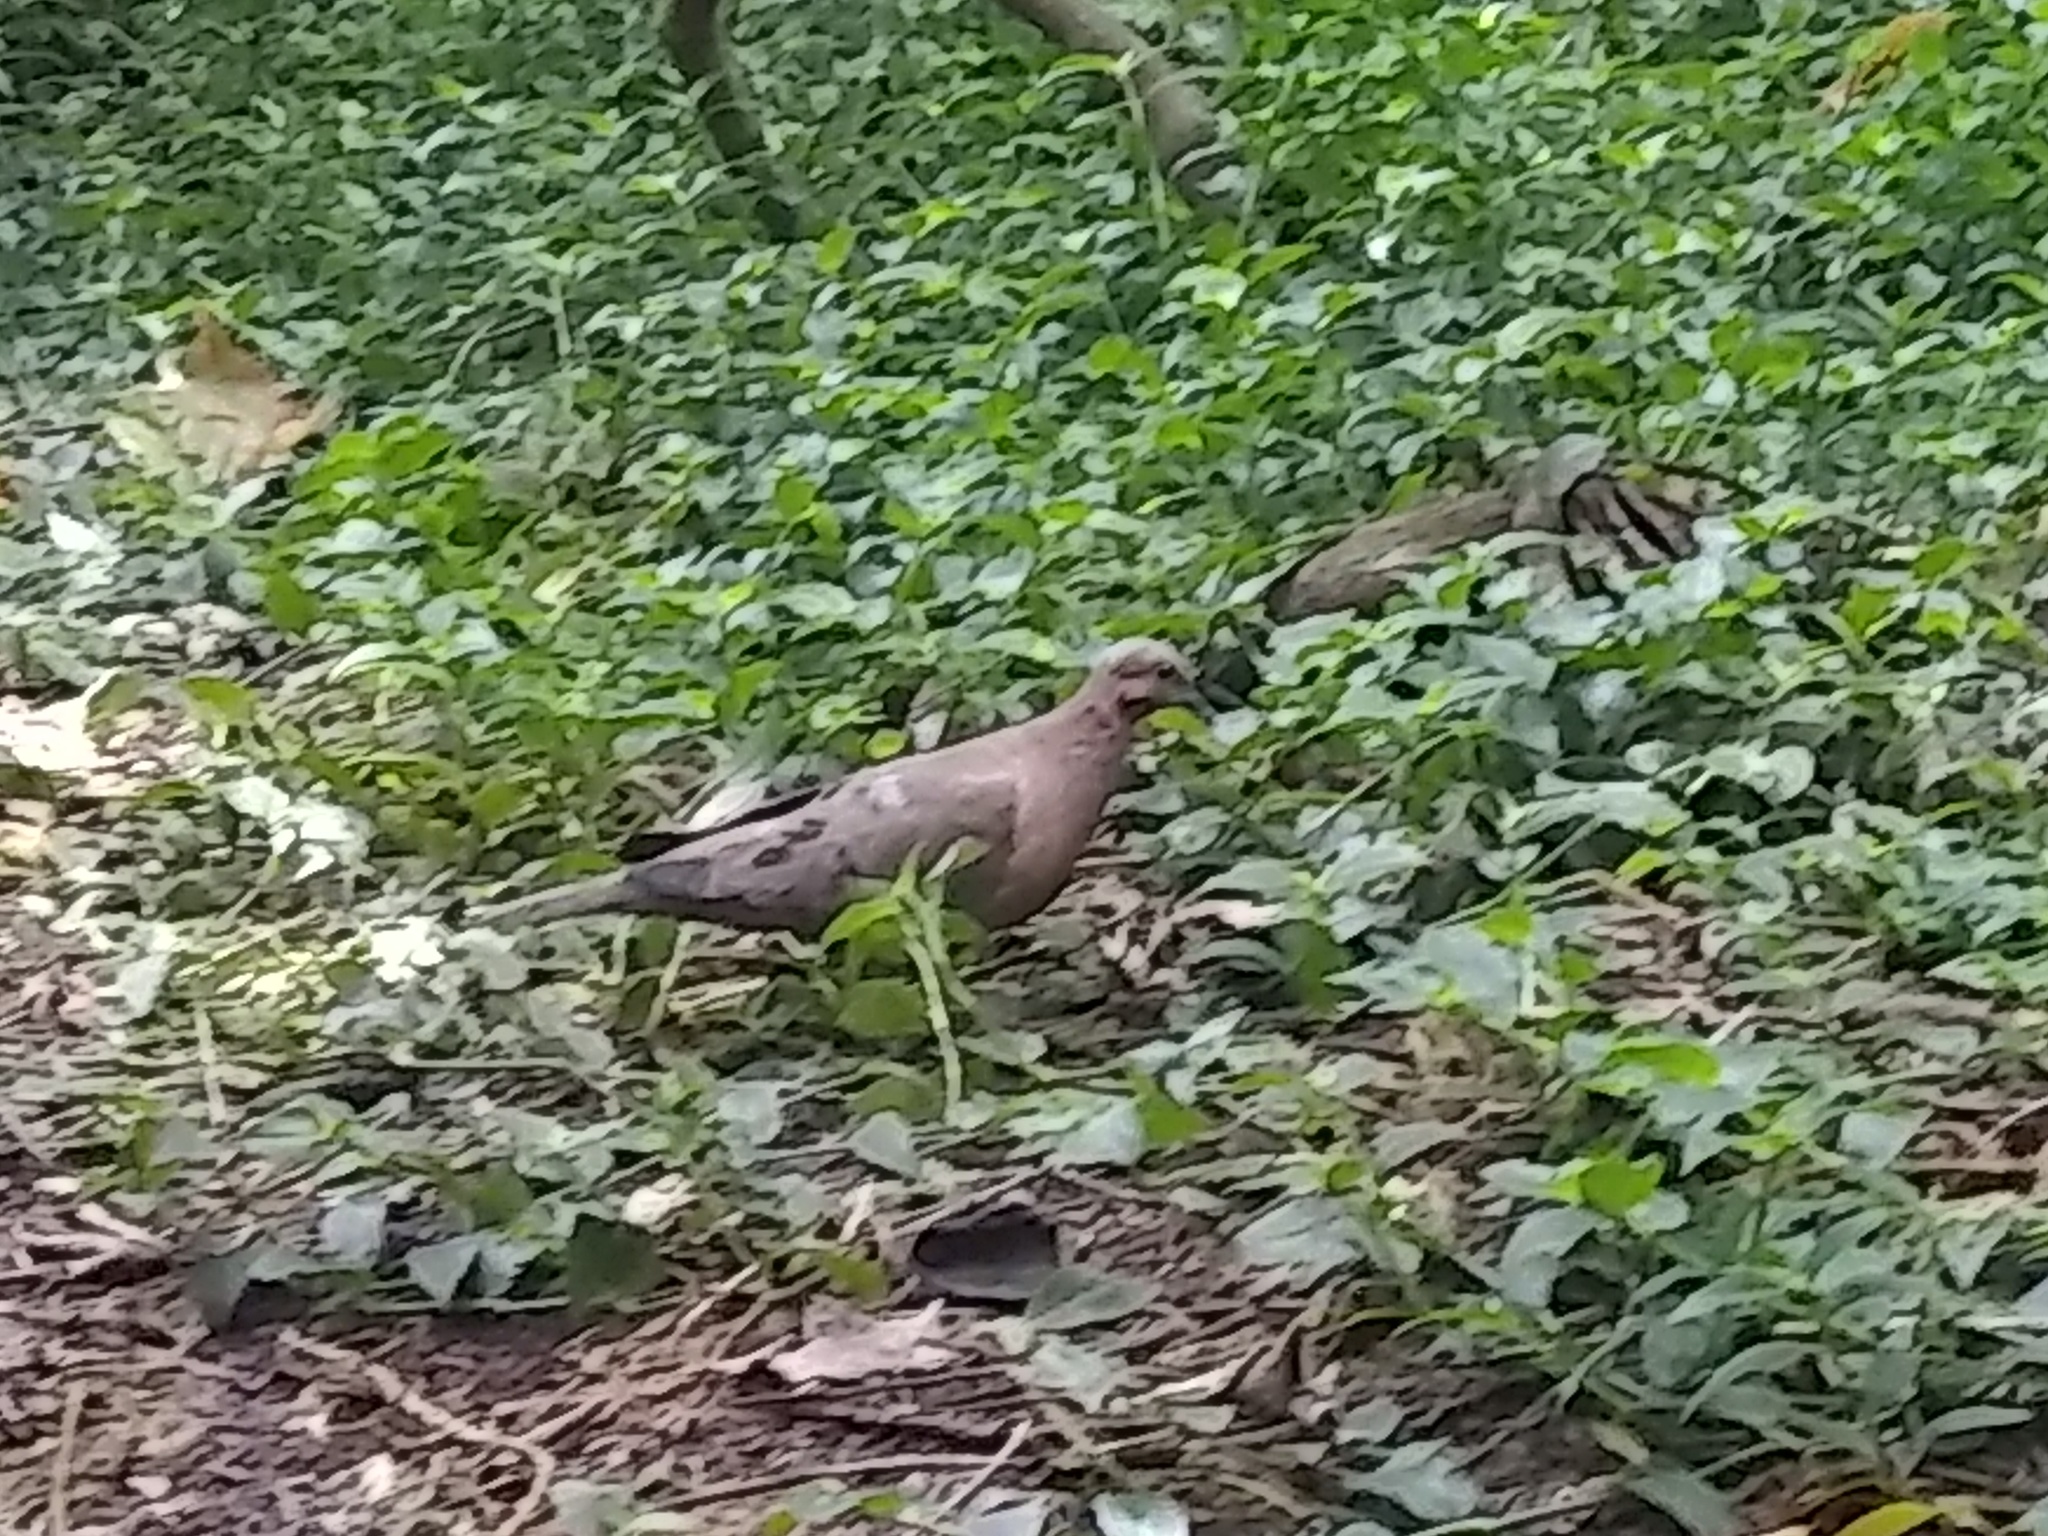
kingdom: Animalia
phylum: Chordata
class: Aves
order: Columbiformes
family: Columbidae
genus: Zenaida
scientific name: Zenaida auriculata
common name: Eared dove
